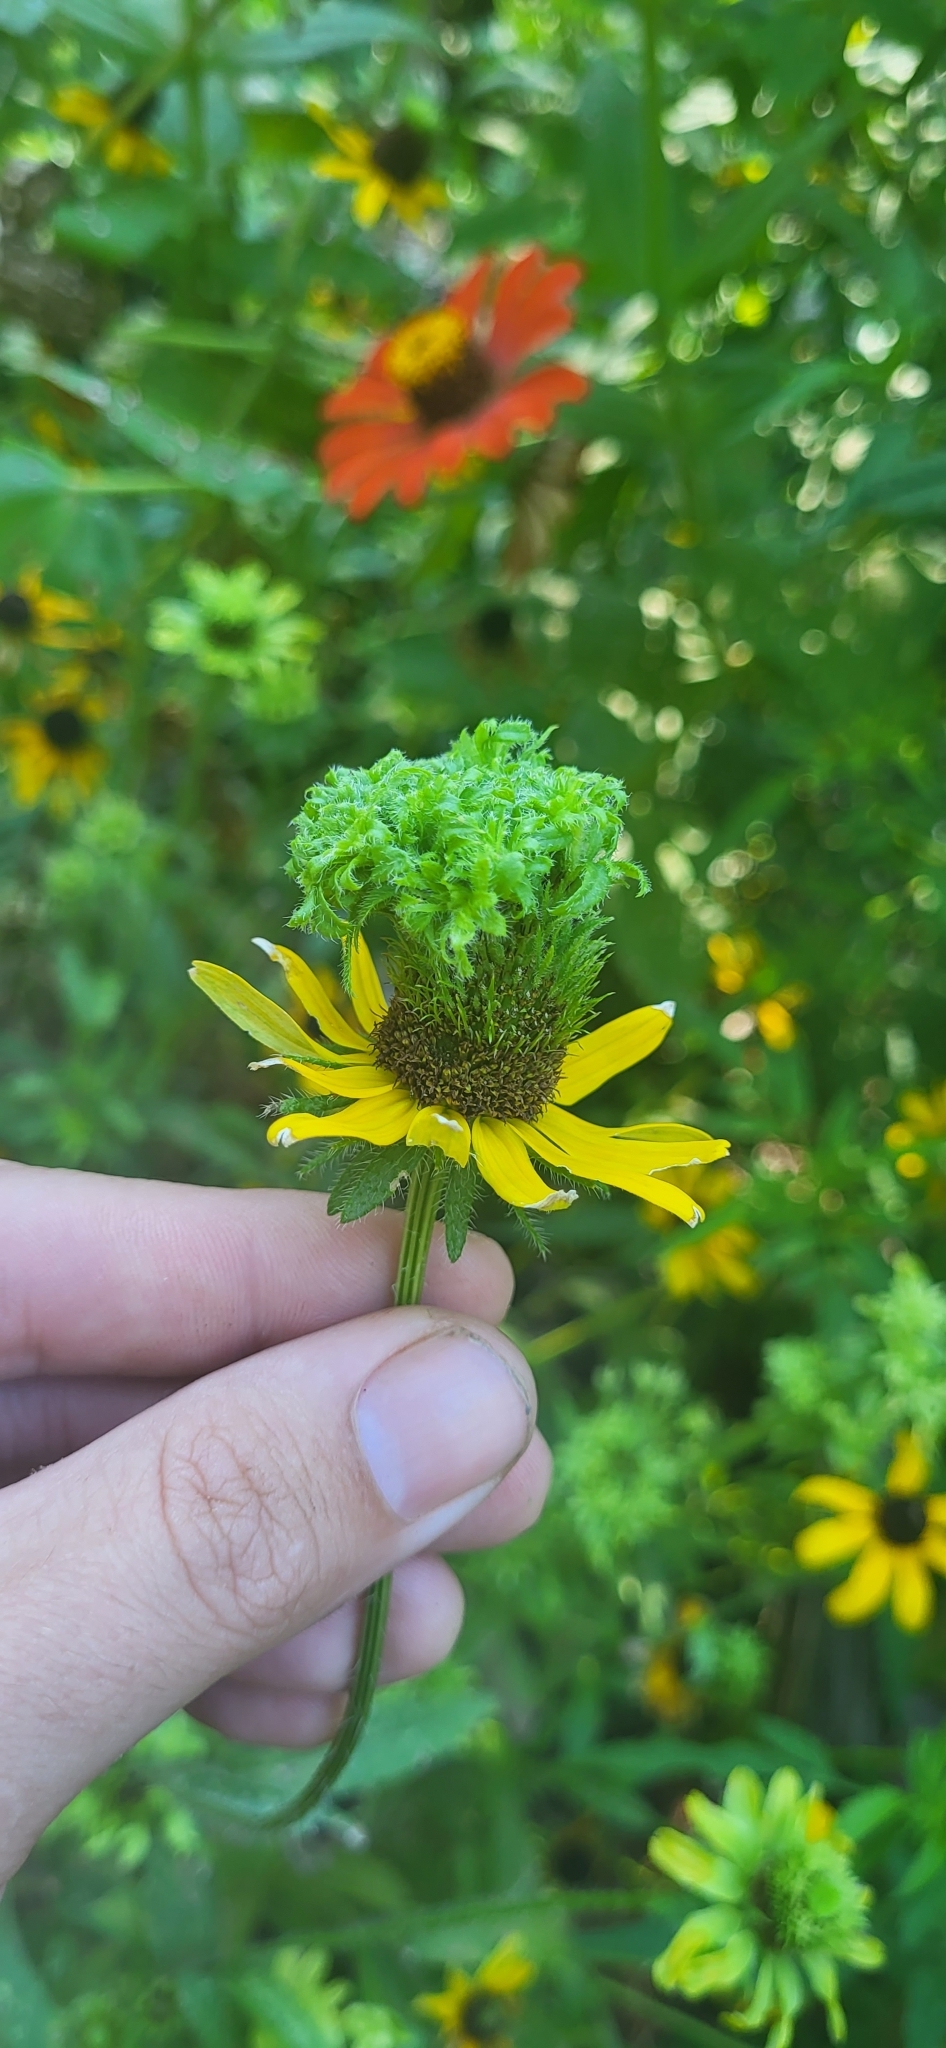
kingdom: Bacteria
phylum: Firmicutes
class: Bacilli
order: Acholeplasmatales
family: Acholeplasmataceae
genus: Phytoplasma
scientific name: Phytoplasma
